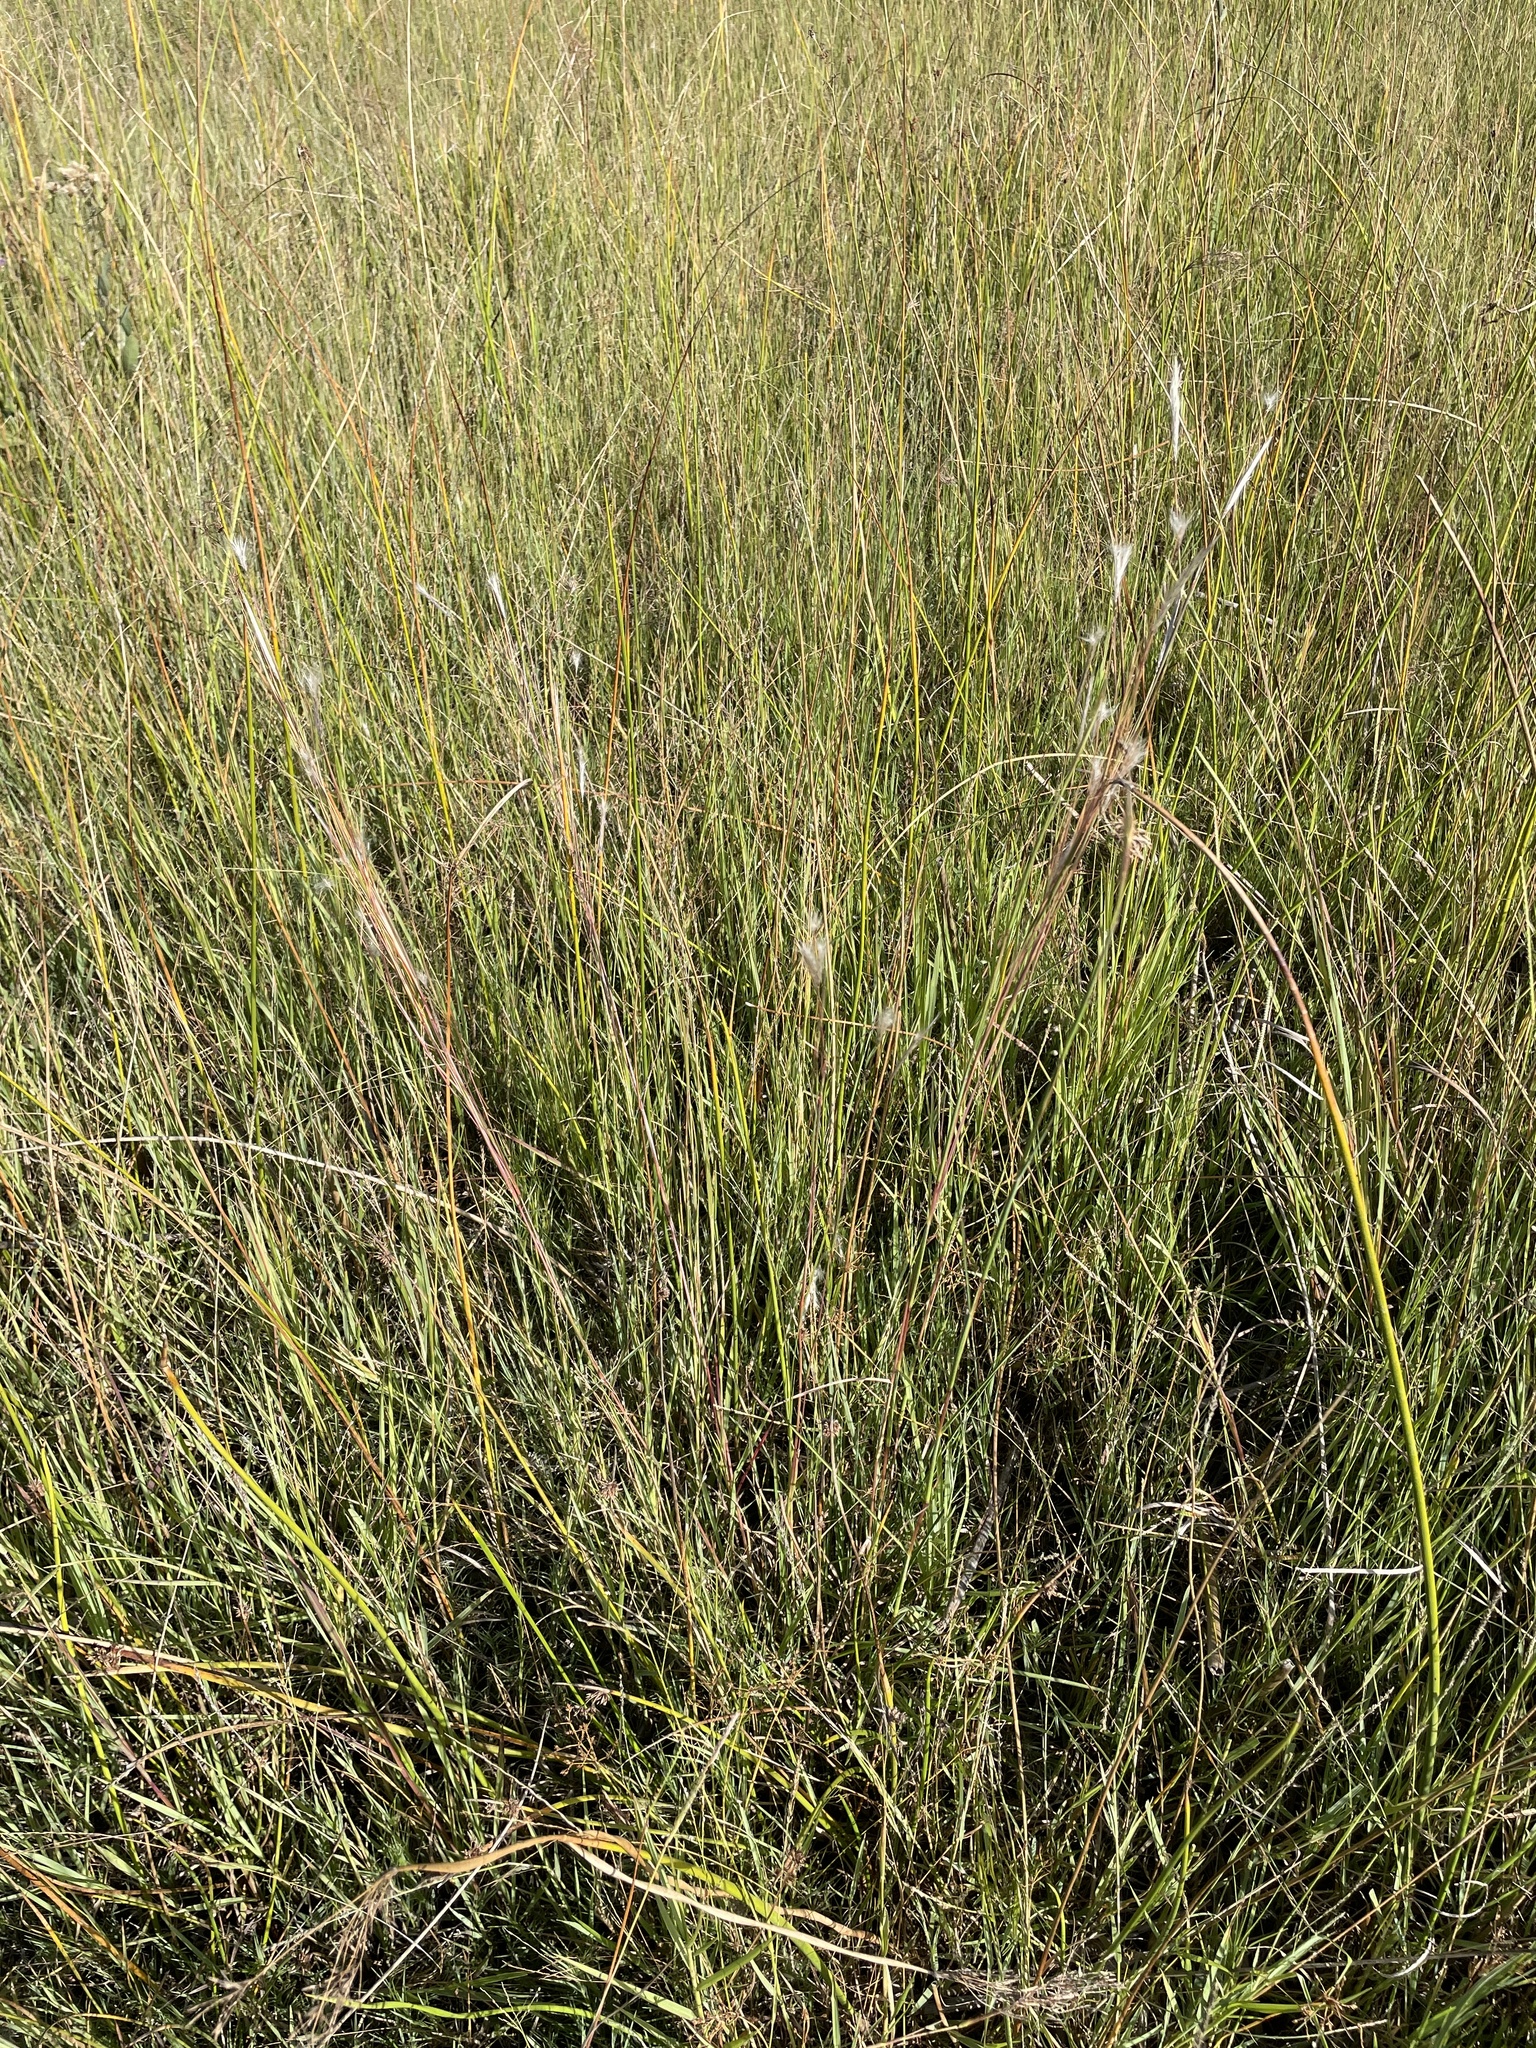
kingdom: Plantae
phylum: Tracheophyta
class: Liliopsida
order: Poales
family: Poaceae
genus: Andropogon
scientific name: Andropogon eucomus
